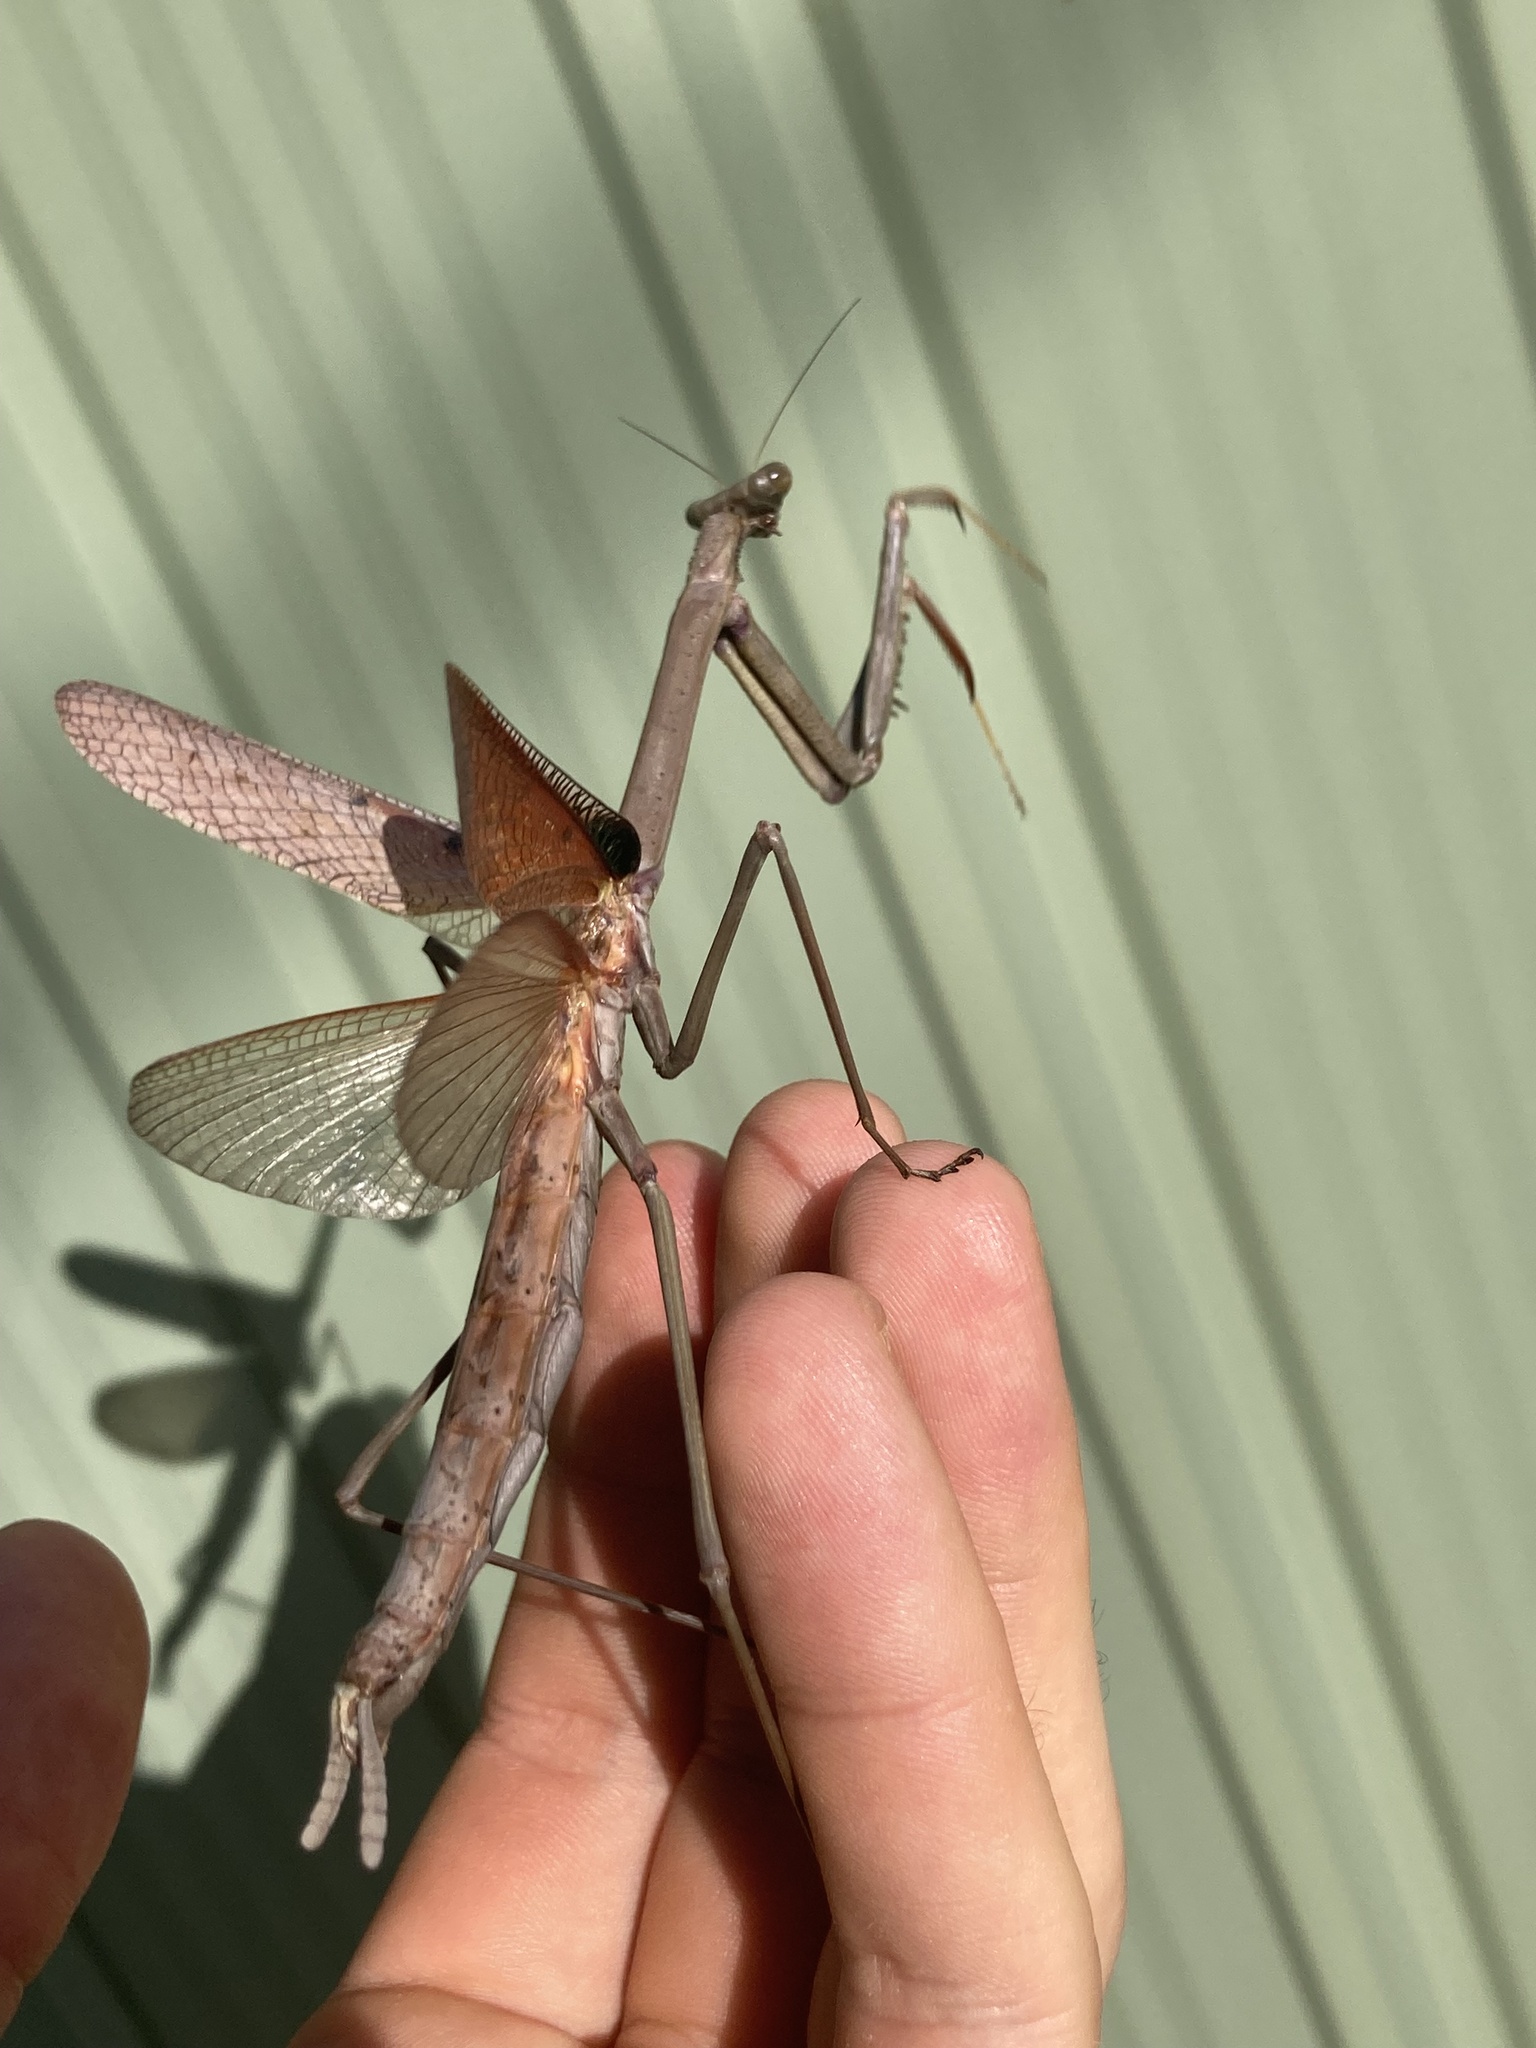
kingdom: Animalia
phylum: Arthropoda
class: Insecta
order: Mantodea
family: Mantidae
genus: Archimantis
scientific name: Archimantis latistyla
